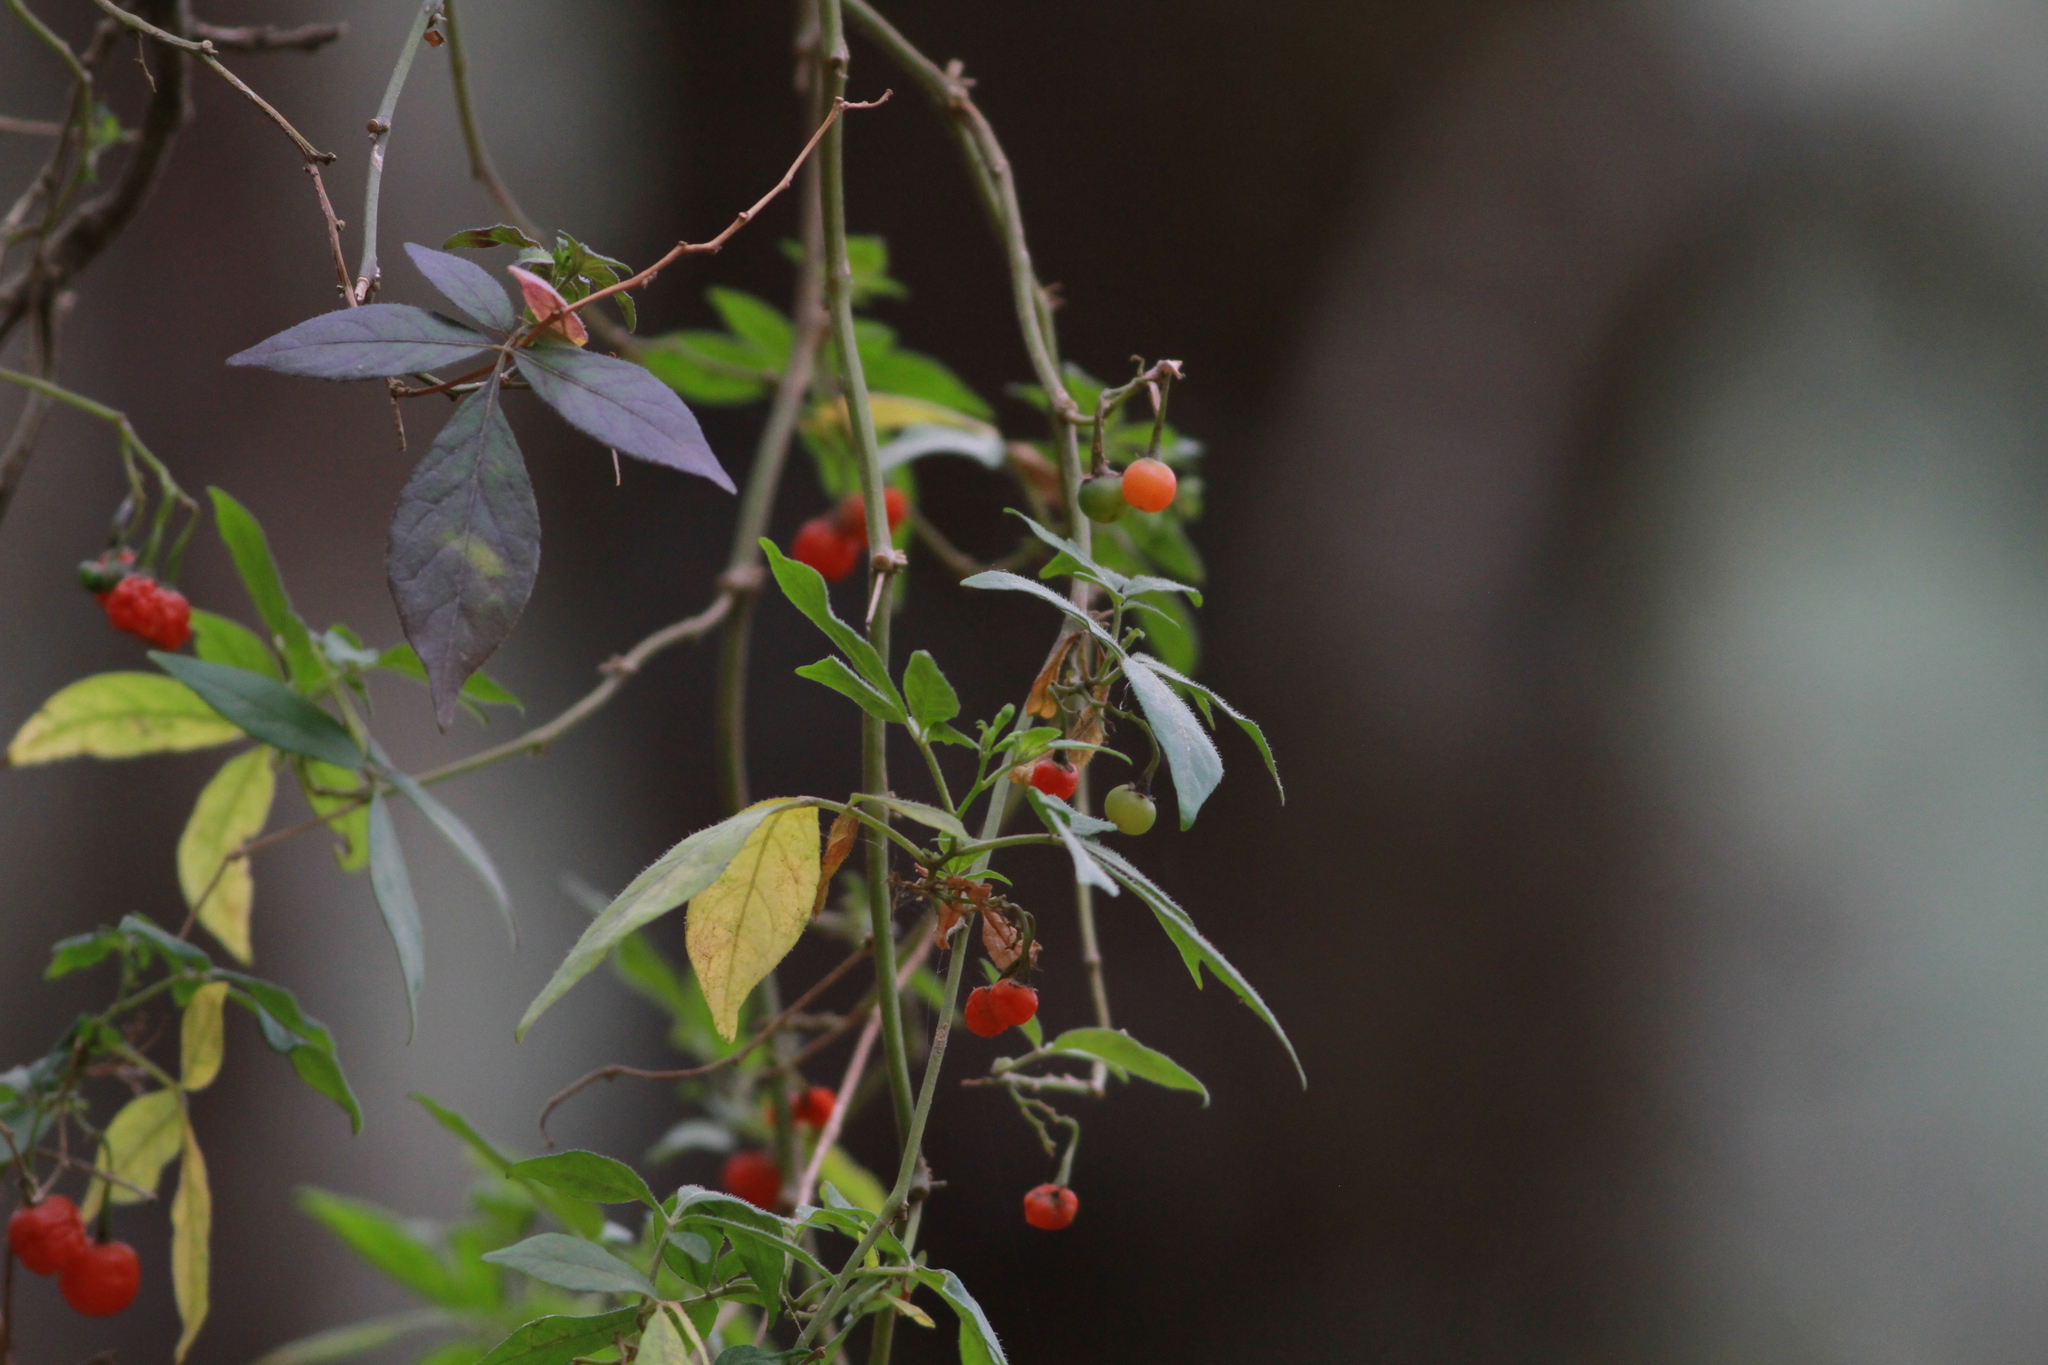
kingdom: Plantae
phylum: Tracheophyta
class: Magnoliopsida
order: Solanales
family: Solanaceae
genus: Solanum
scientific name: Solanum appendiculatum
